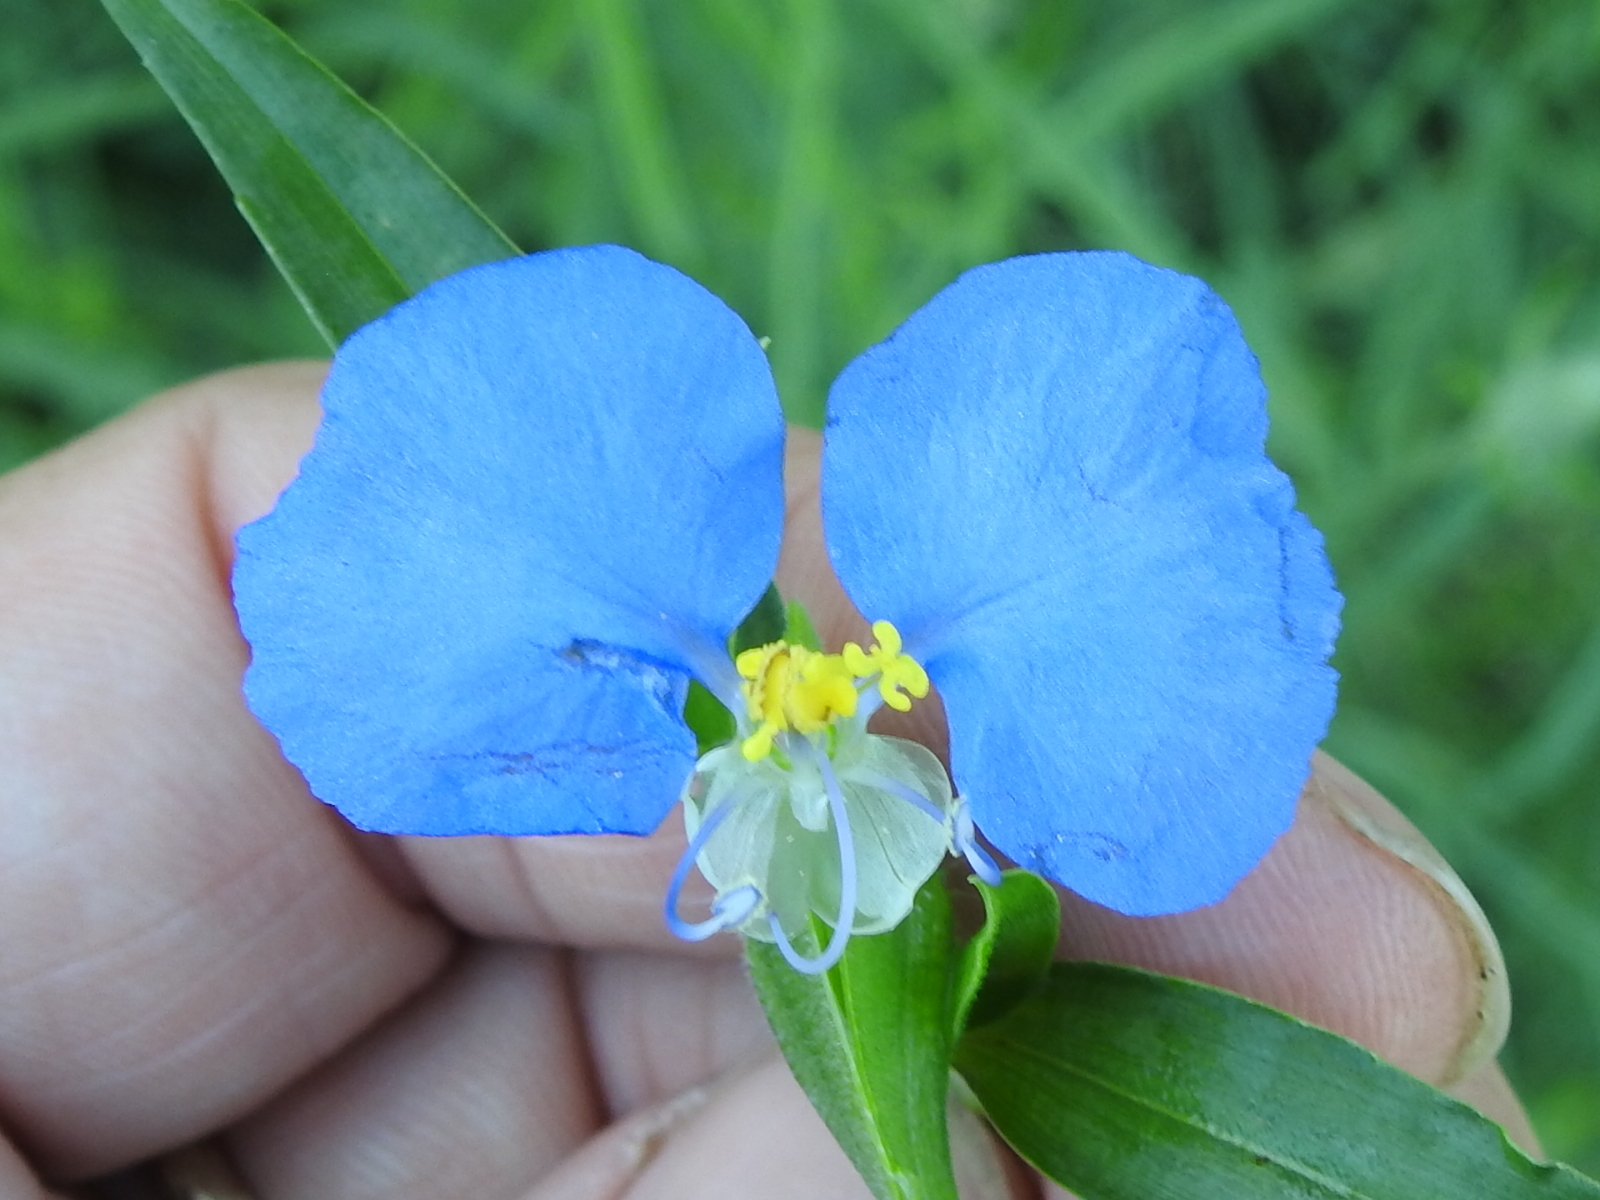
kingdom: Plantae
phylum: Tracheophyta
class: Liliopsida
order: Commelinales
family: Commelinaceae
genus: Commelina
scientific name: Commelina erecta
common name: Blousel blommetjie
